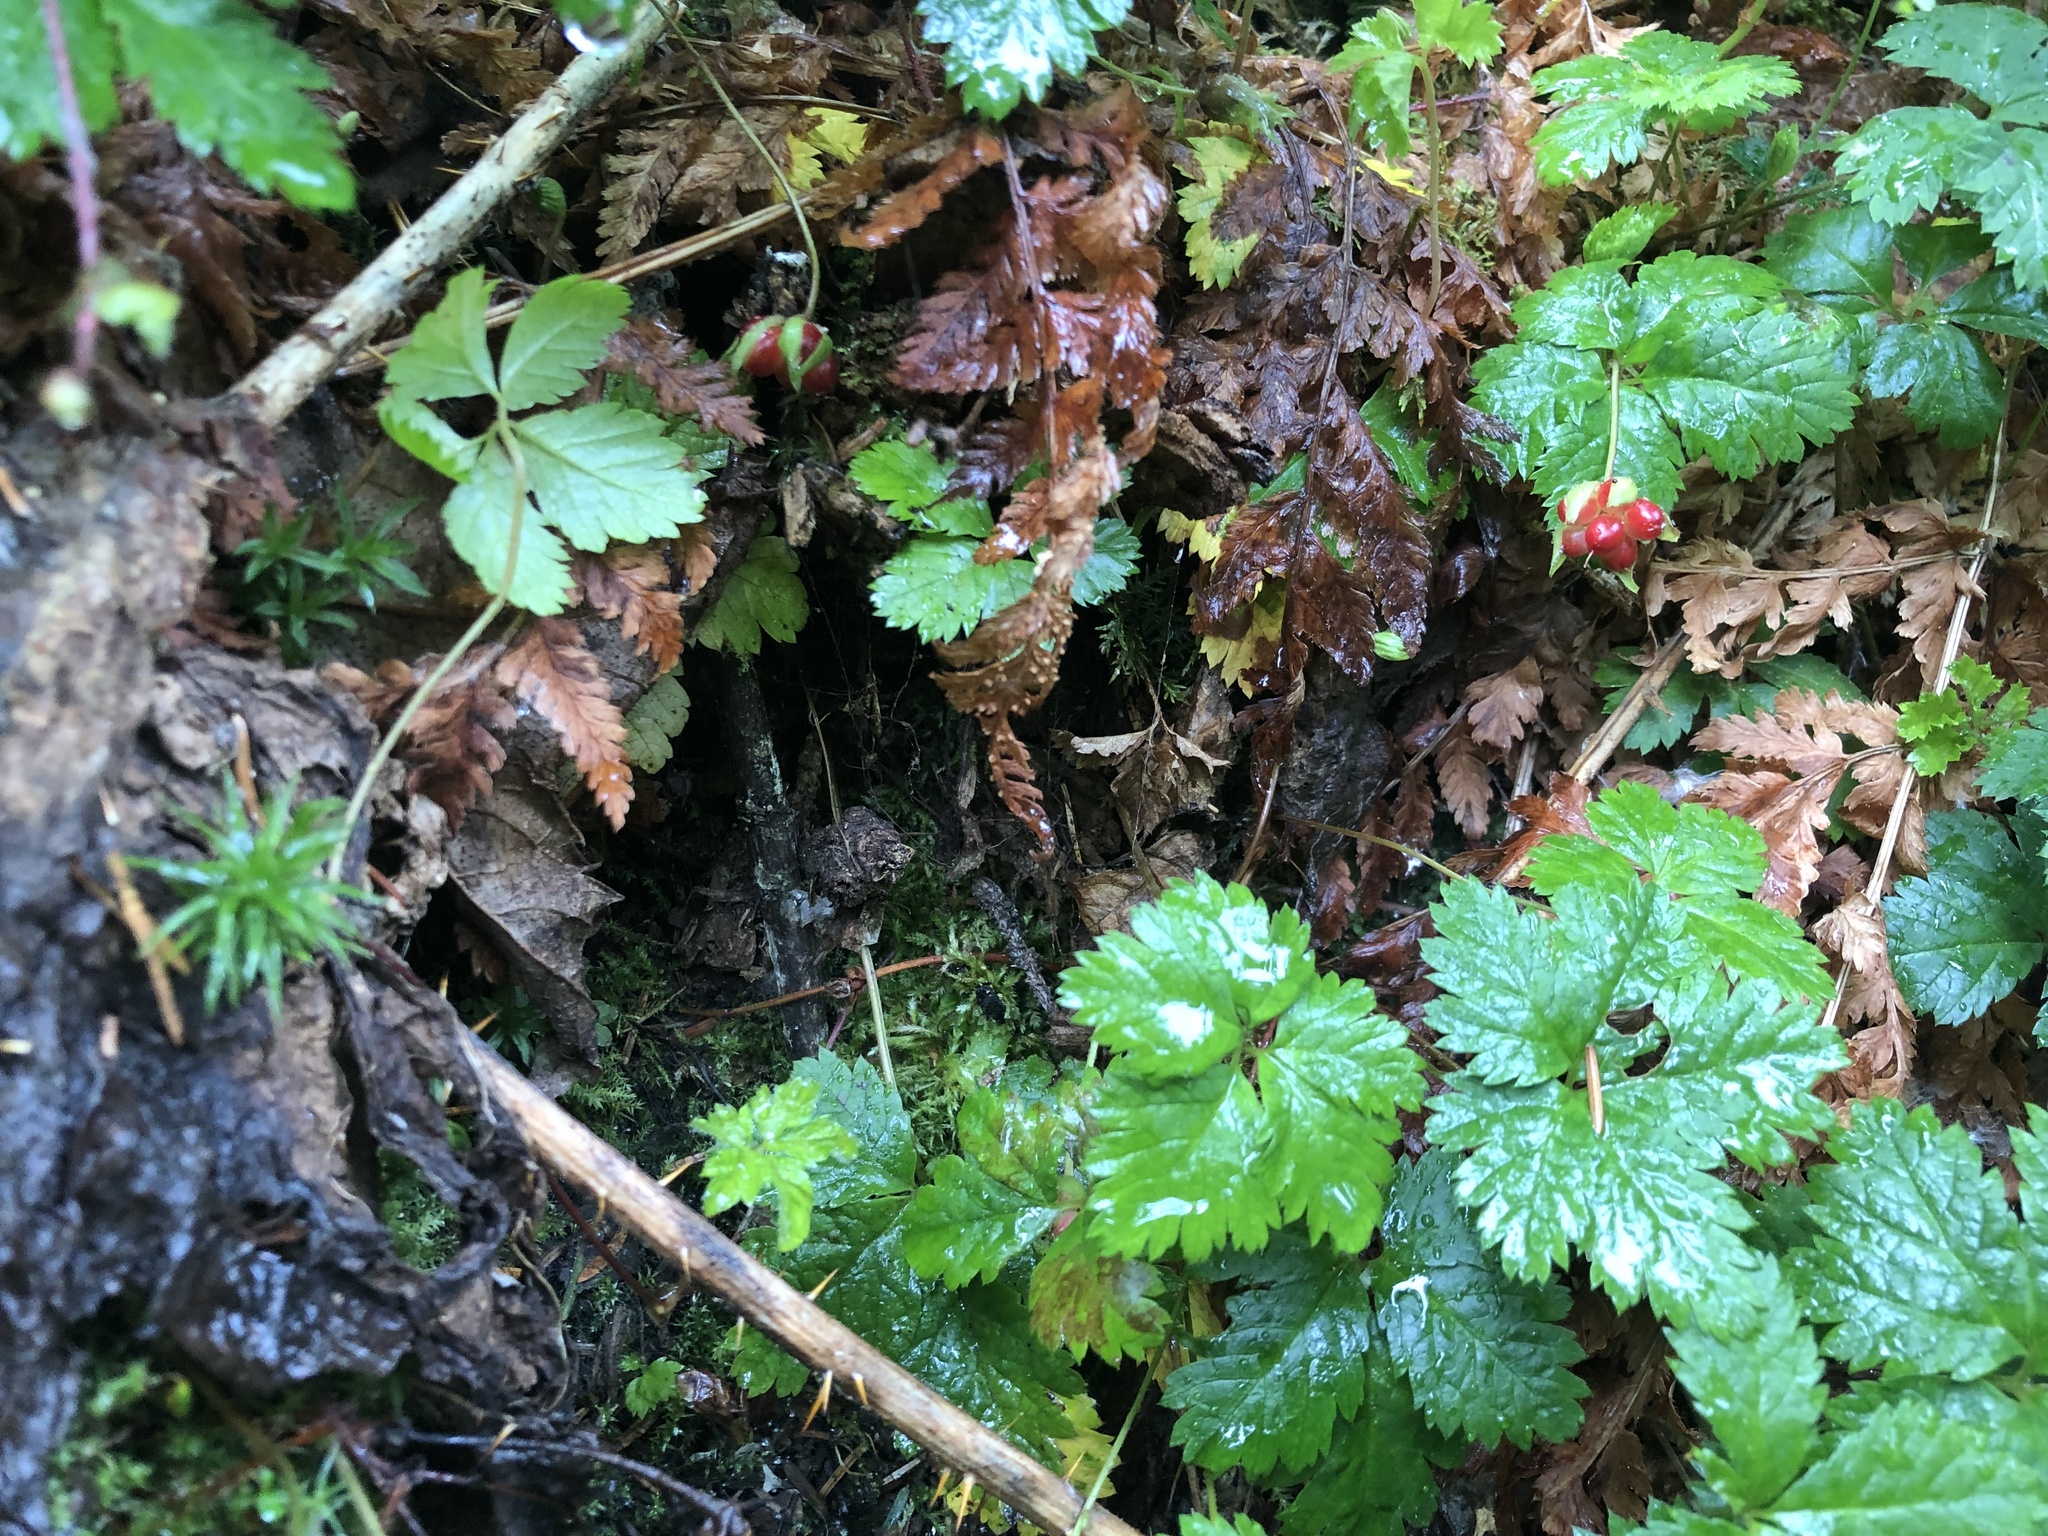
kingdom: Plantae
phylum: Tracheophyta
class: Magnoliopsida
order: Rosales
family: Rosaceae
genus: Rubus
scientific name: Rubus pedatus
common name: Creeping raspberry
